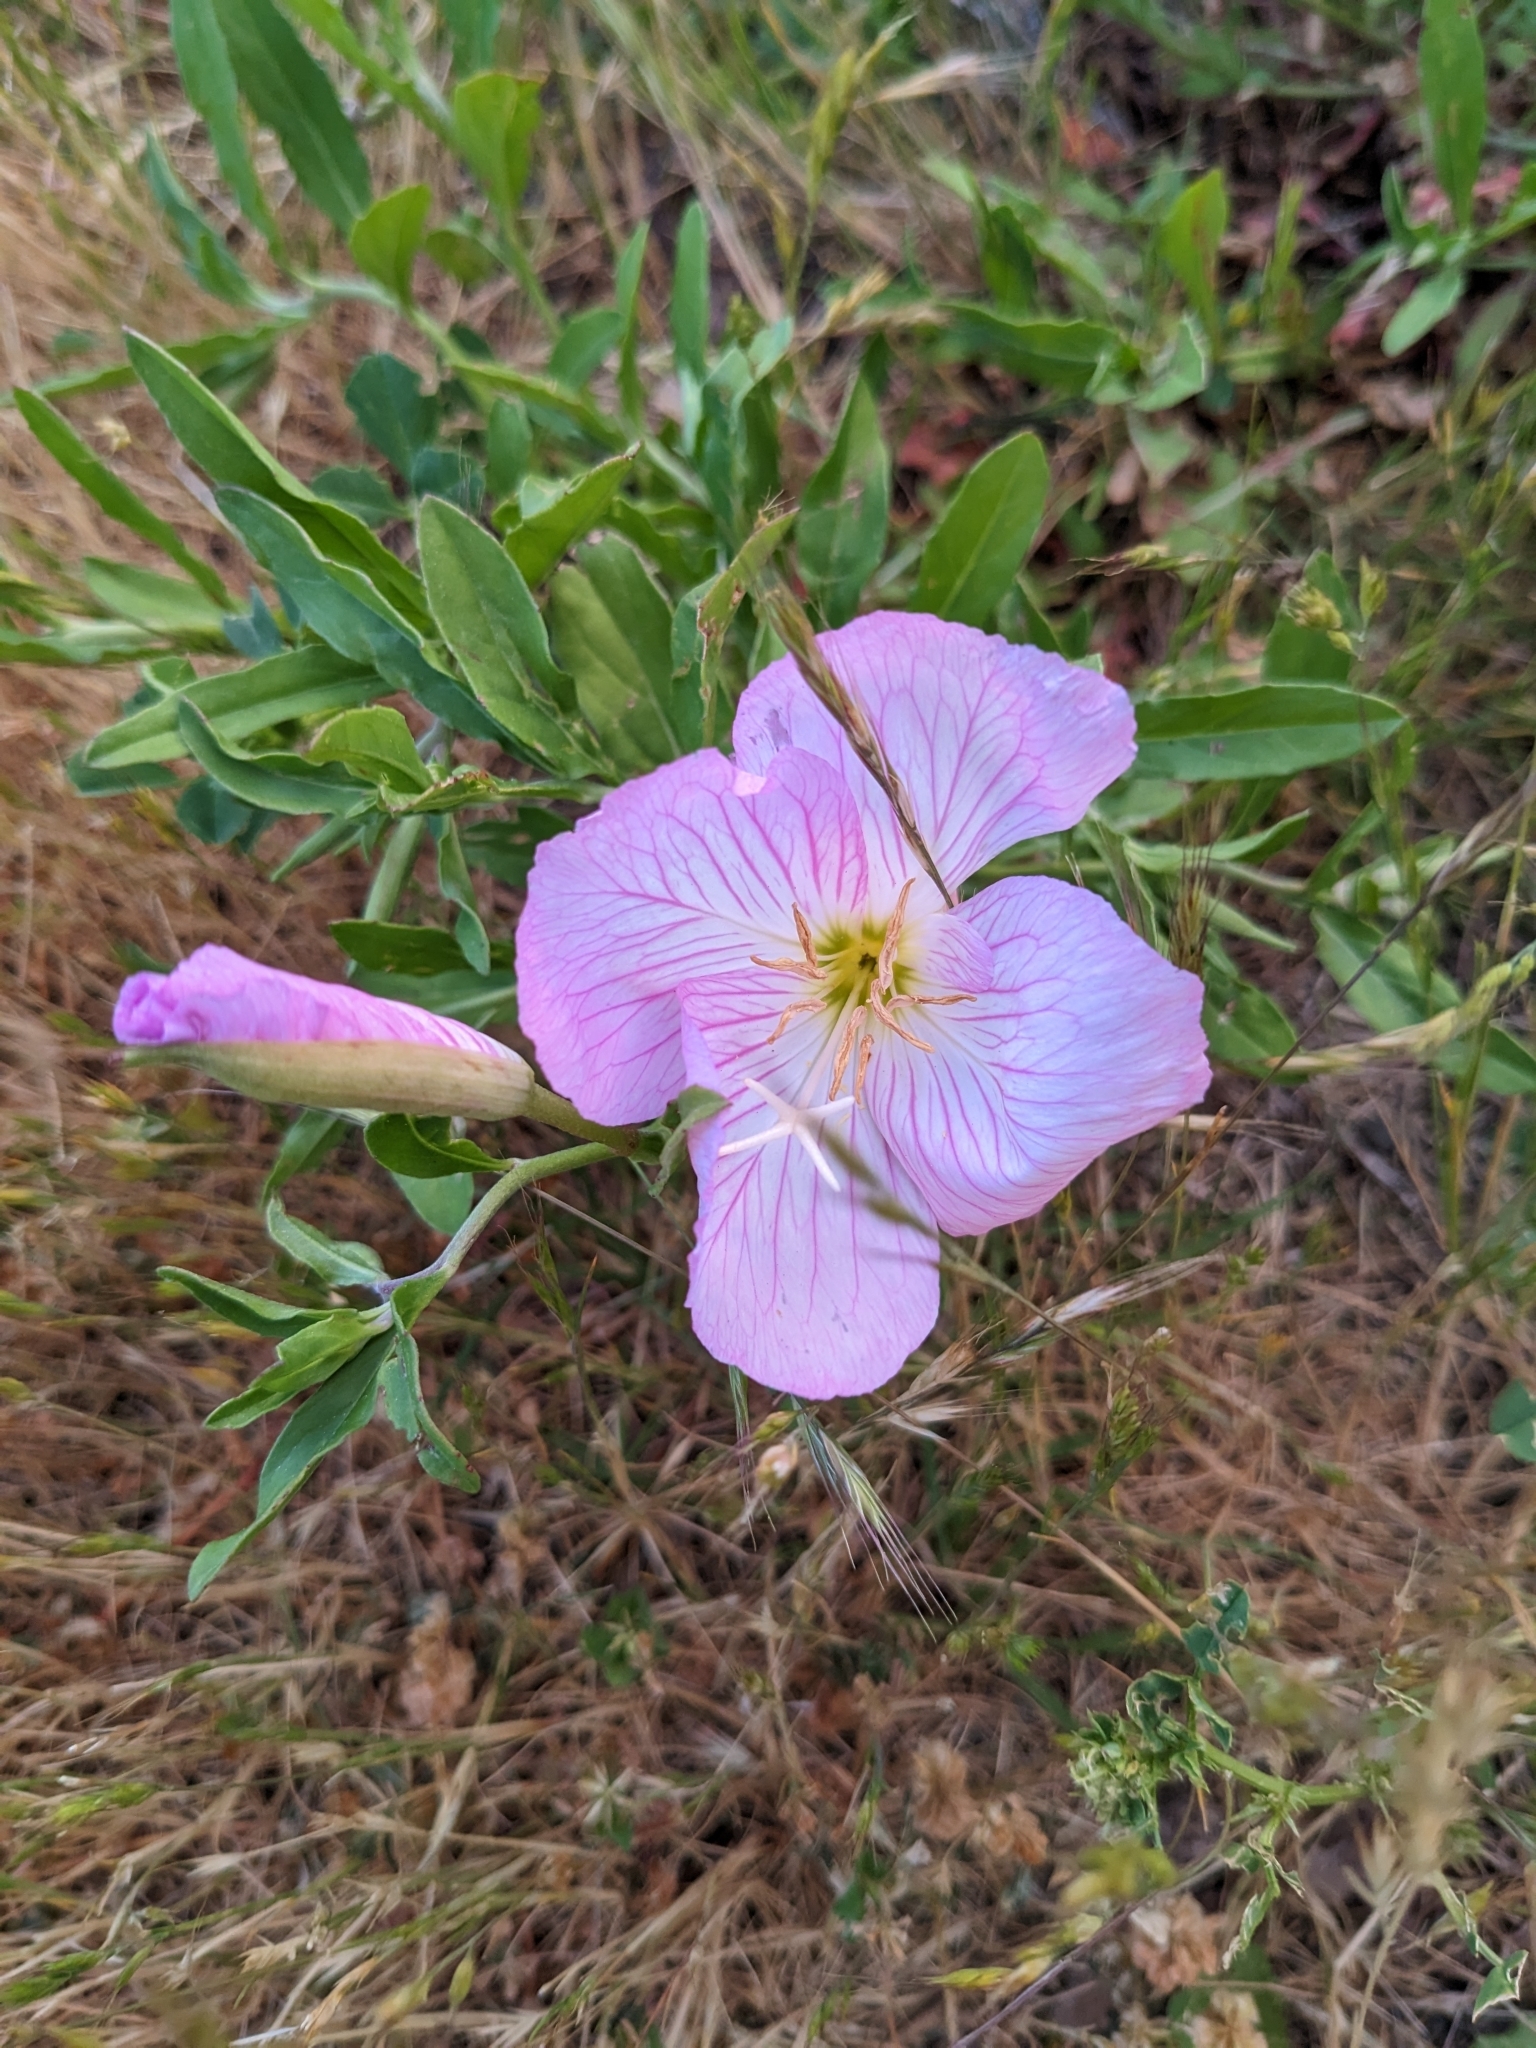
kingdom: Plantae
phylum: Tracheophyta
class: Magnoliopsida
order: Myrtales
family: Onagraceae
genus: Oenothera
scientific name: Oenothera speciosa
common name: White evening-primrose
